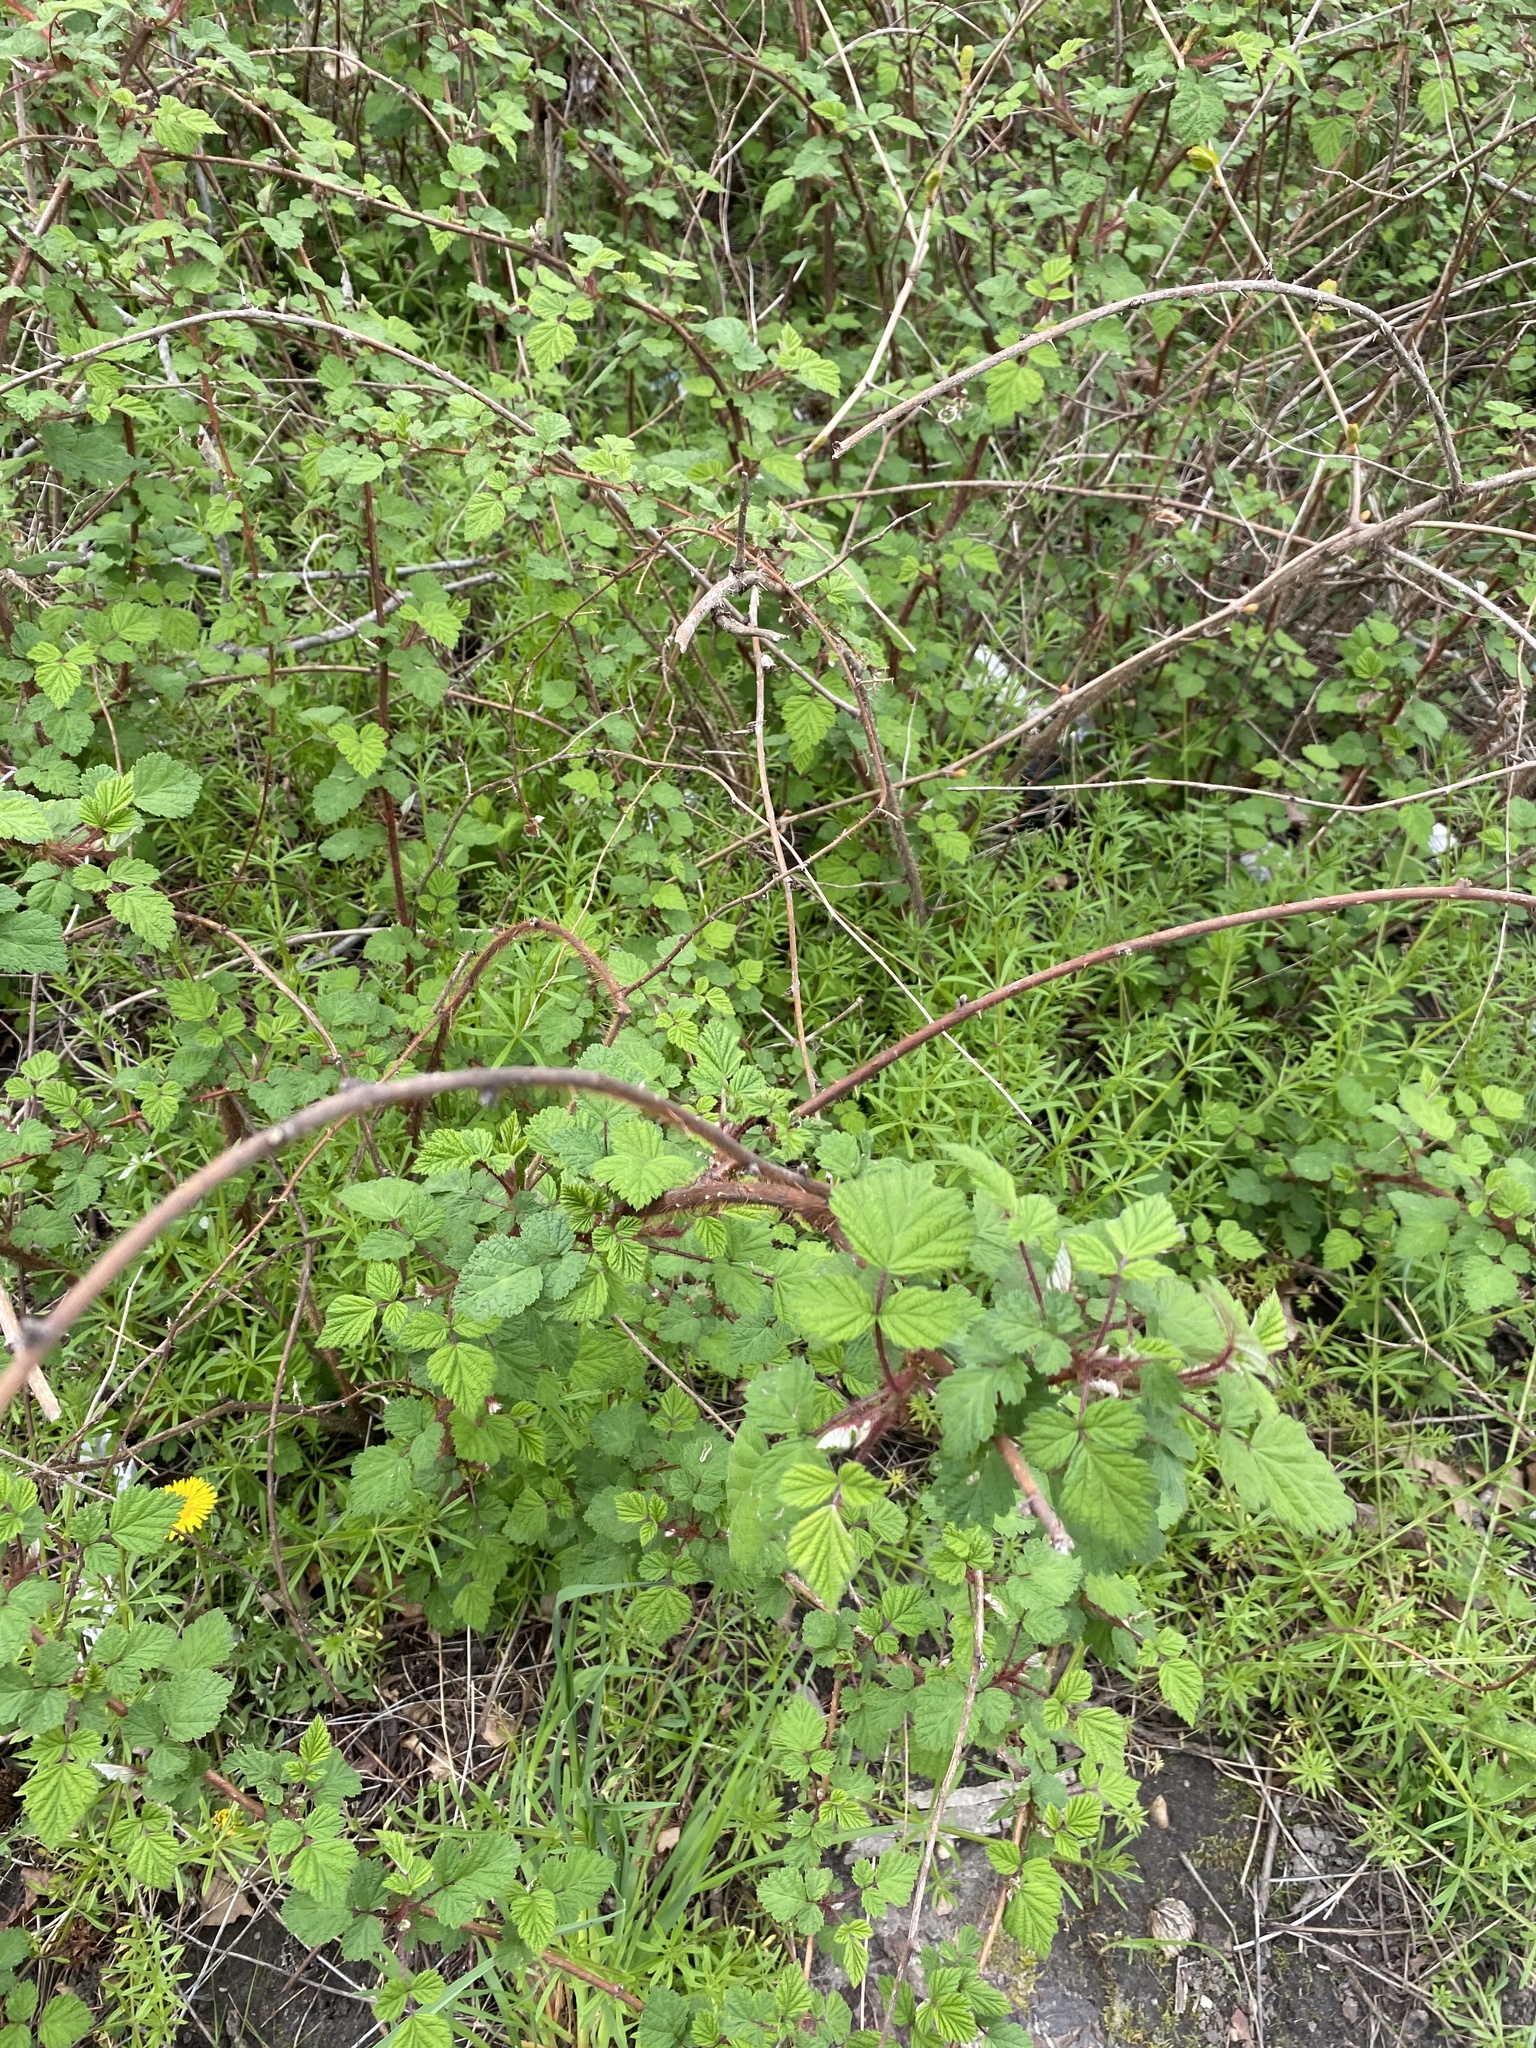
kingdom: Plantae
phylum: Tracheophyta
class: Magnoliopsida
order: Rosales
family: Rosaceae
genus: Rubus
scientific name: Rubus phoenicolasius
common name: Japanese wineberry
